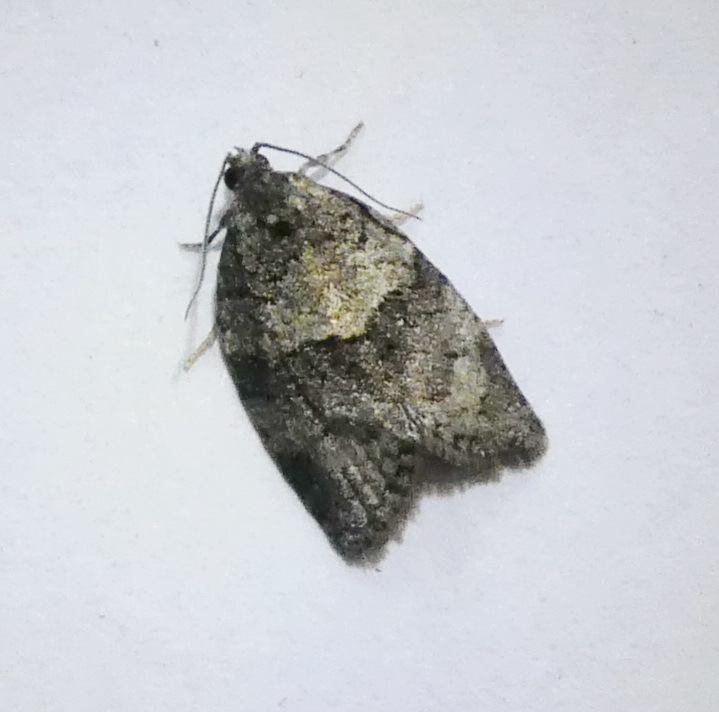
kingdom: Animalia
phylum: Arthropoda
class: Insecta
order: Lepidoptera
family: Tortricidae
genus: Syndemis
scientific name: Syndemis afflictana
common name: Gray leafroller moth
